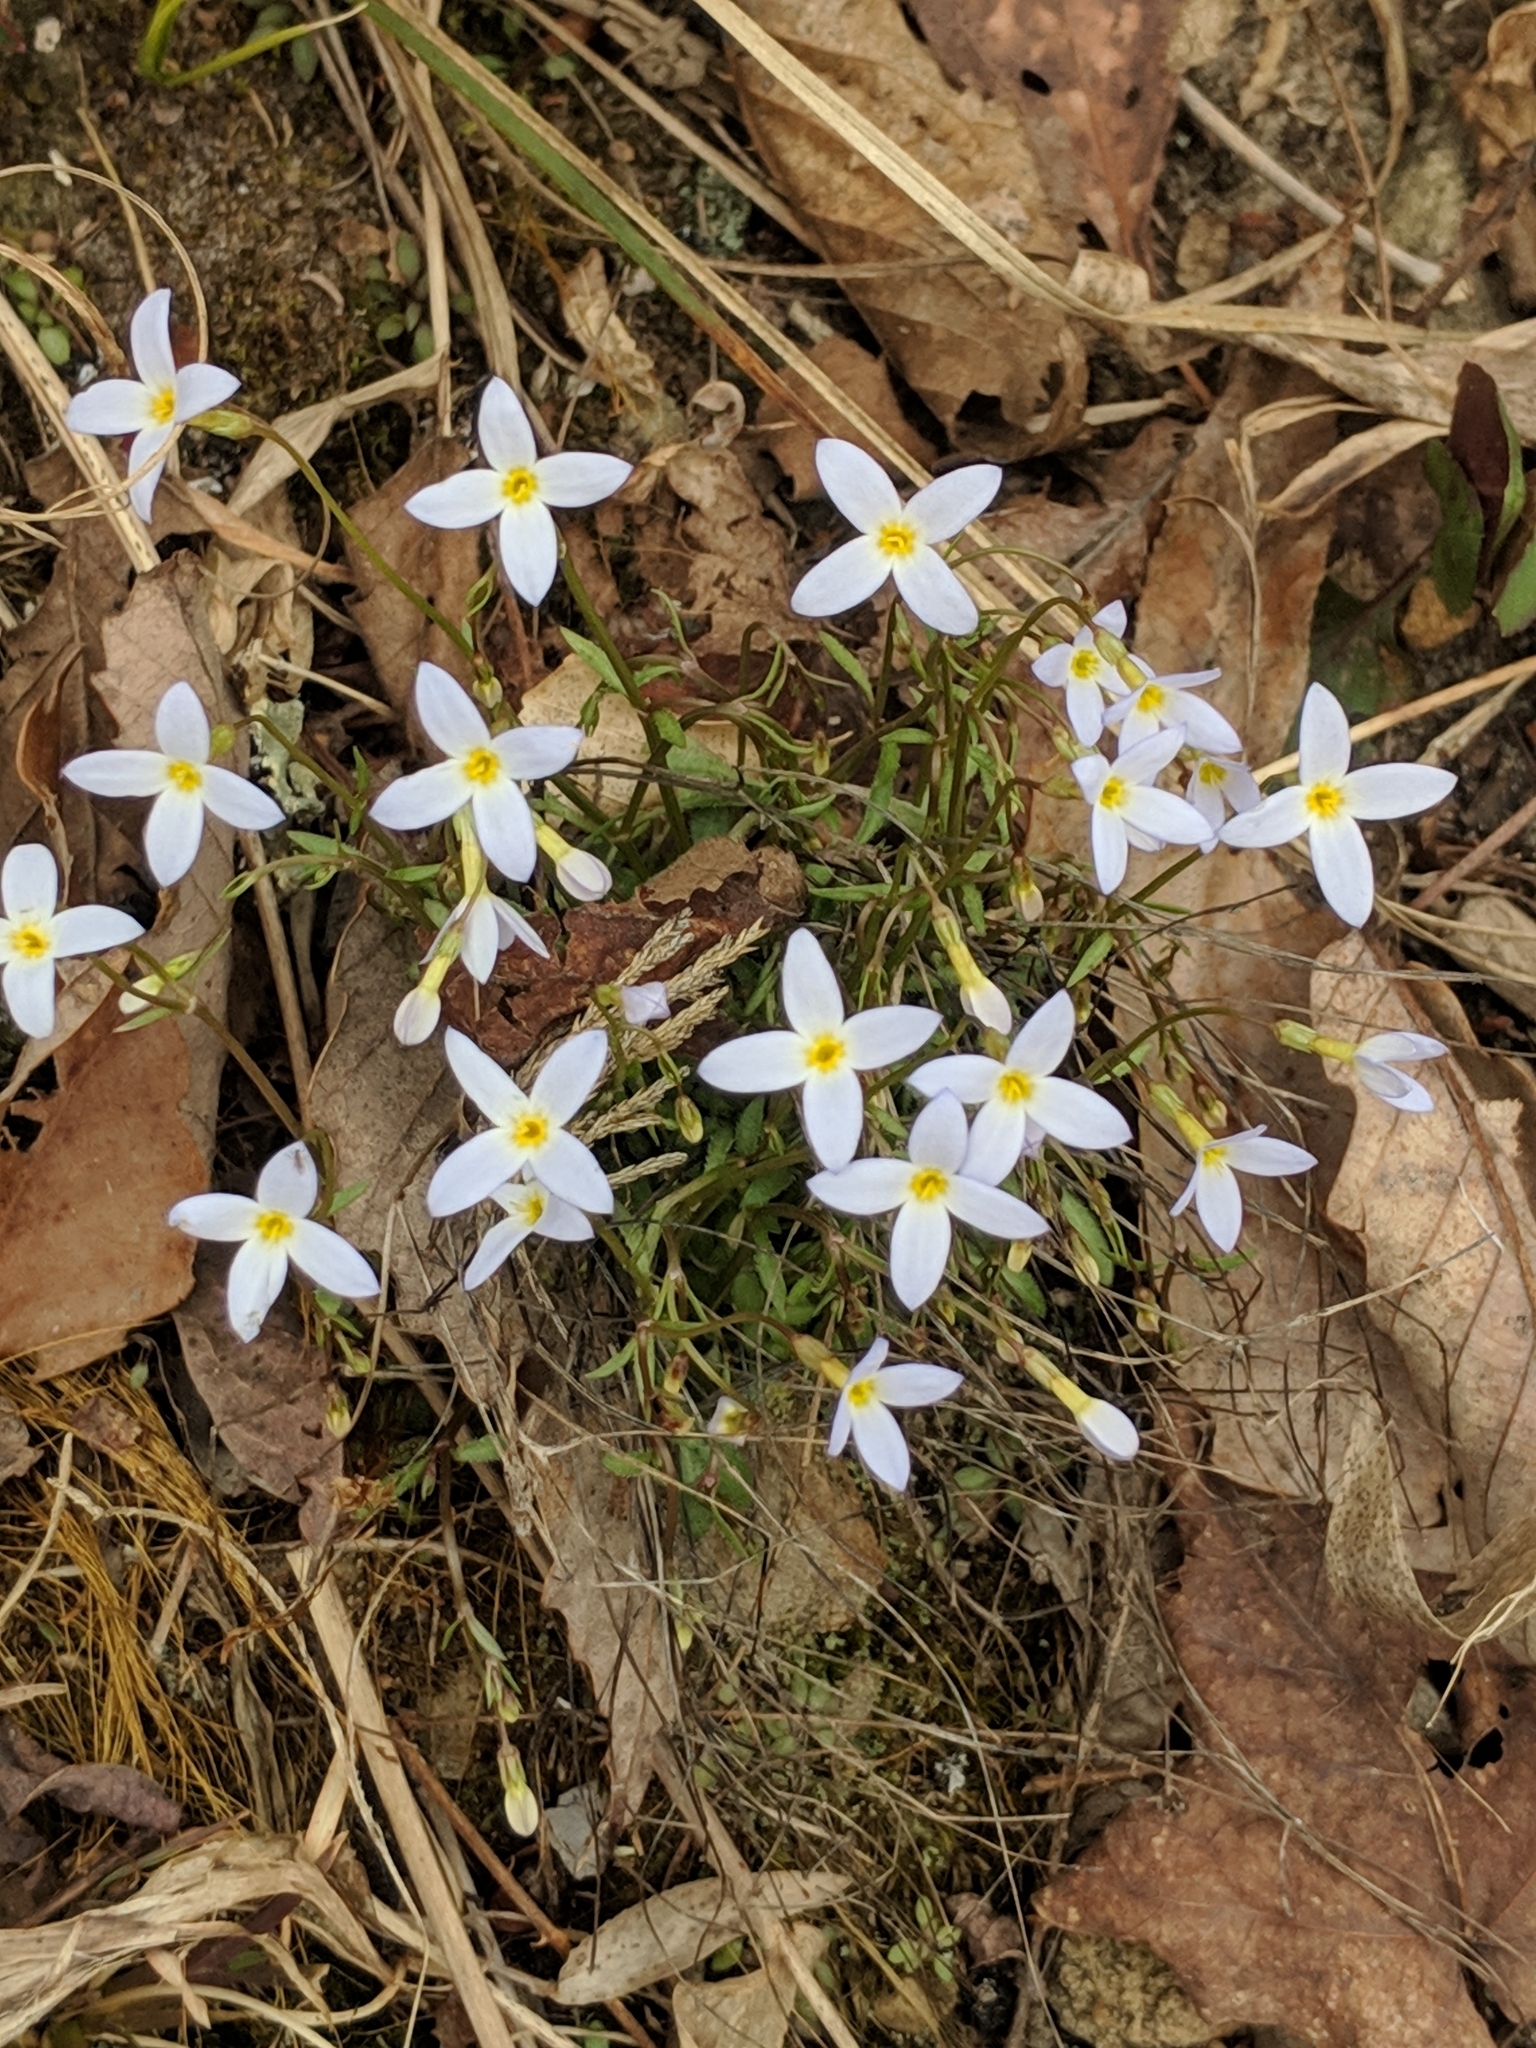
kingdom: Plantae
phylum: Tracheophyta
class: Magnoliopsida
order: Gentianales
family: Rubiaceae
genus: Houstonia
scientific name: Houstonia caerulea
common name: Bluets
